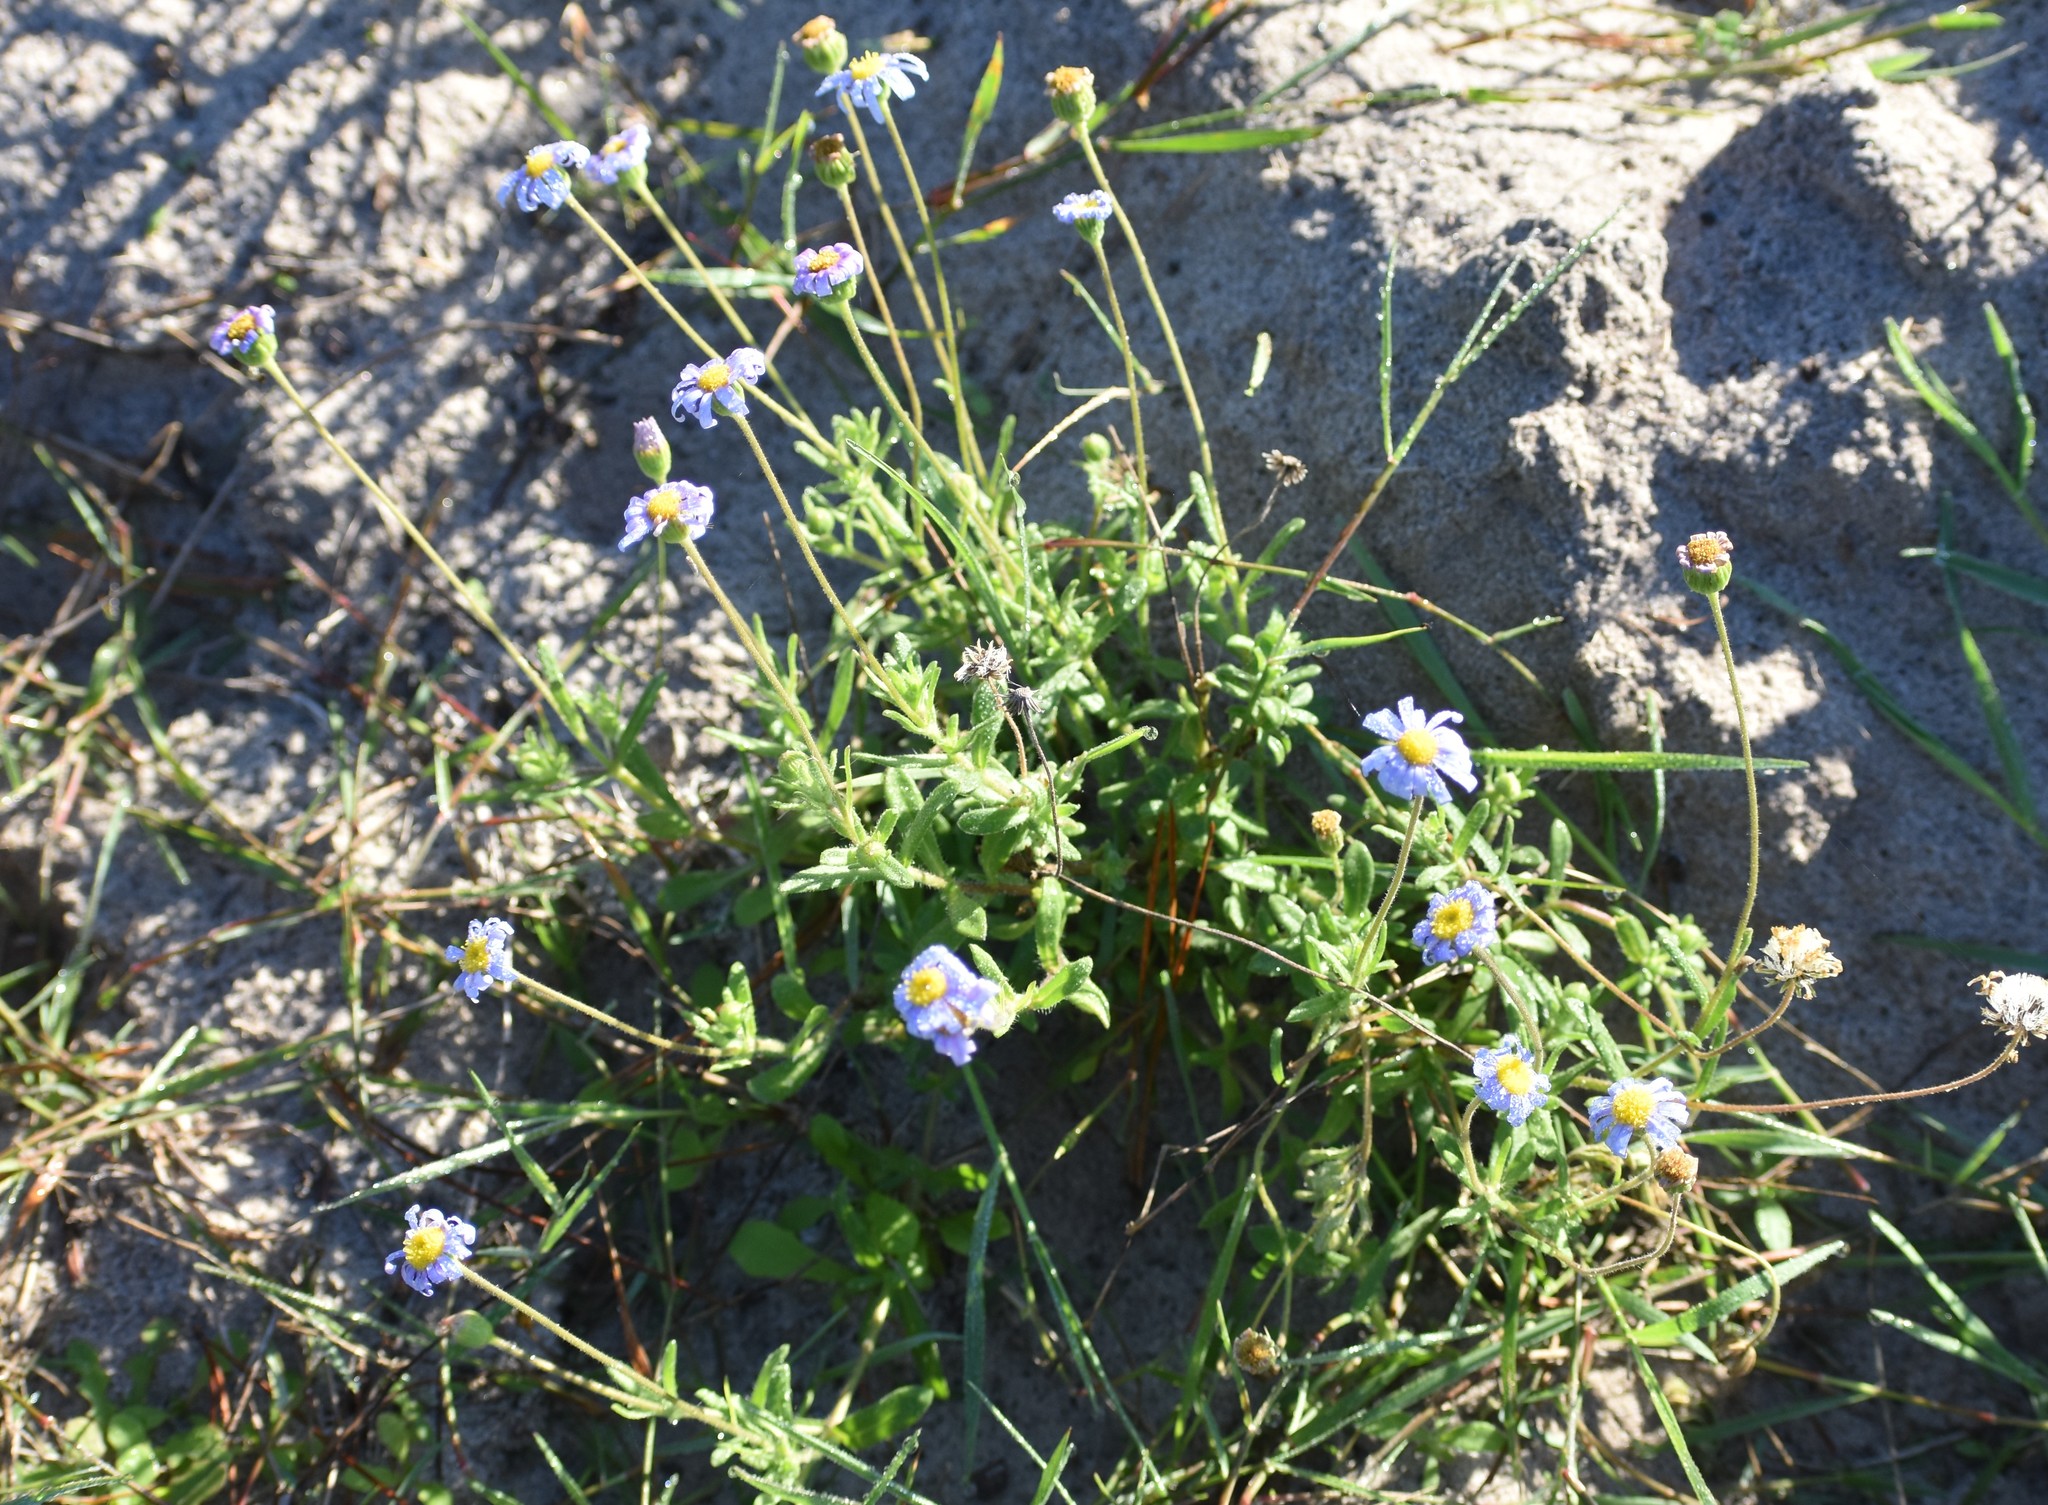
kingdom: Plantae
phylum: Tracheophyta
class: Magnoliopsida
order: Asterales
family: Asteraceae
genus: Felicia
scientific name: Felicia amoena
